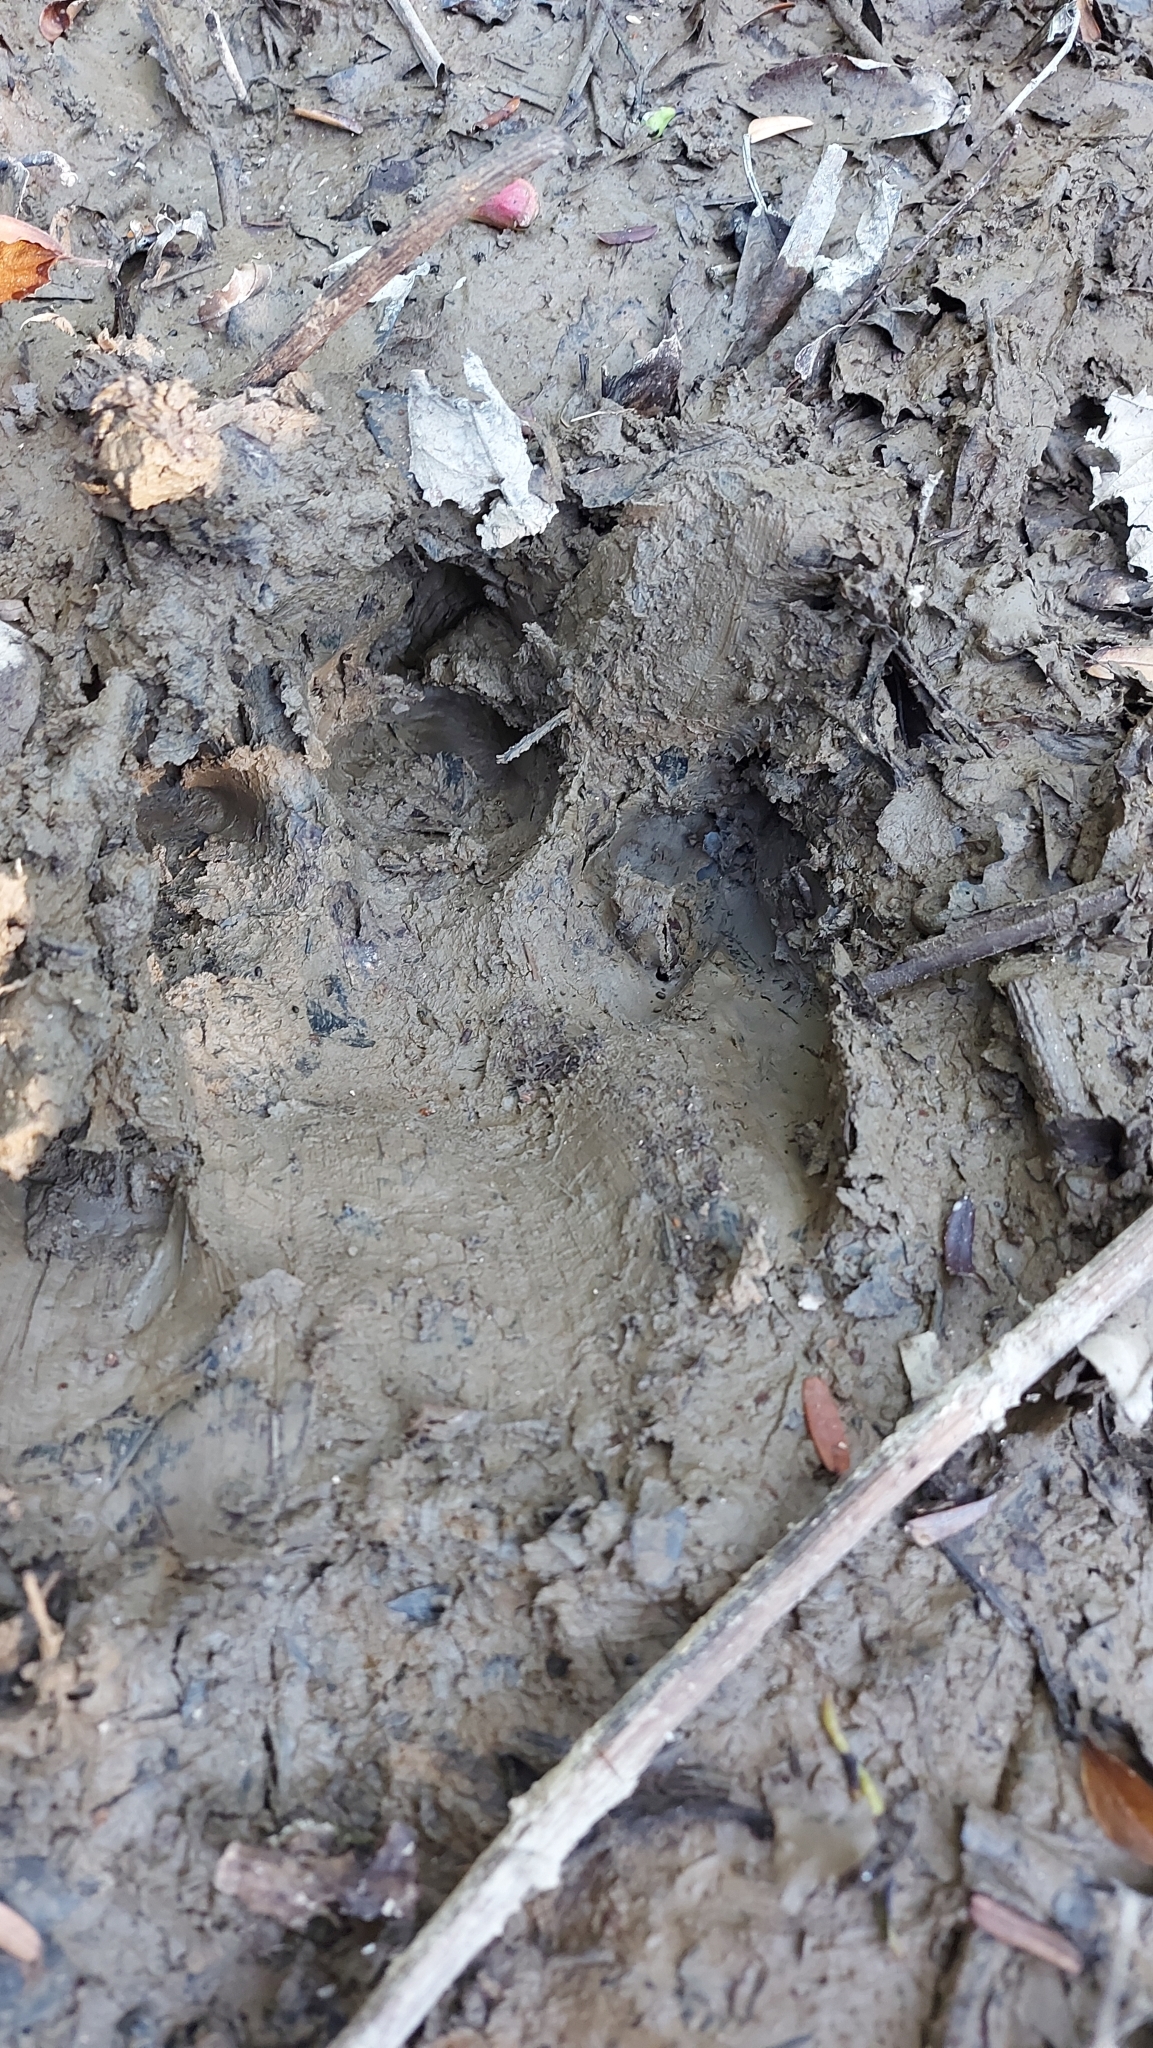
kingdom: Animalia
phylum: Chordata
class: Mammalia
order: Perissodactyla
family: Tapiridae
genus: Tapirus
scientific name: Tapirus terrestris
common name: Brazilian tapir
